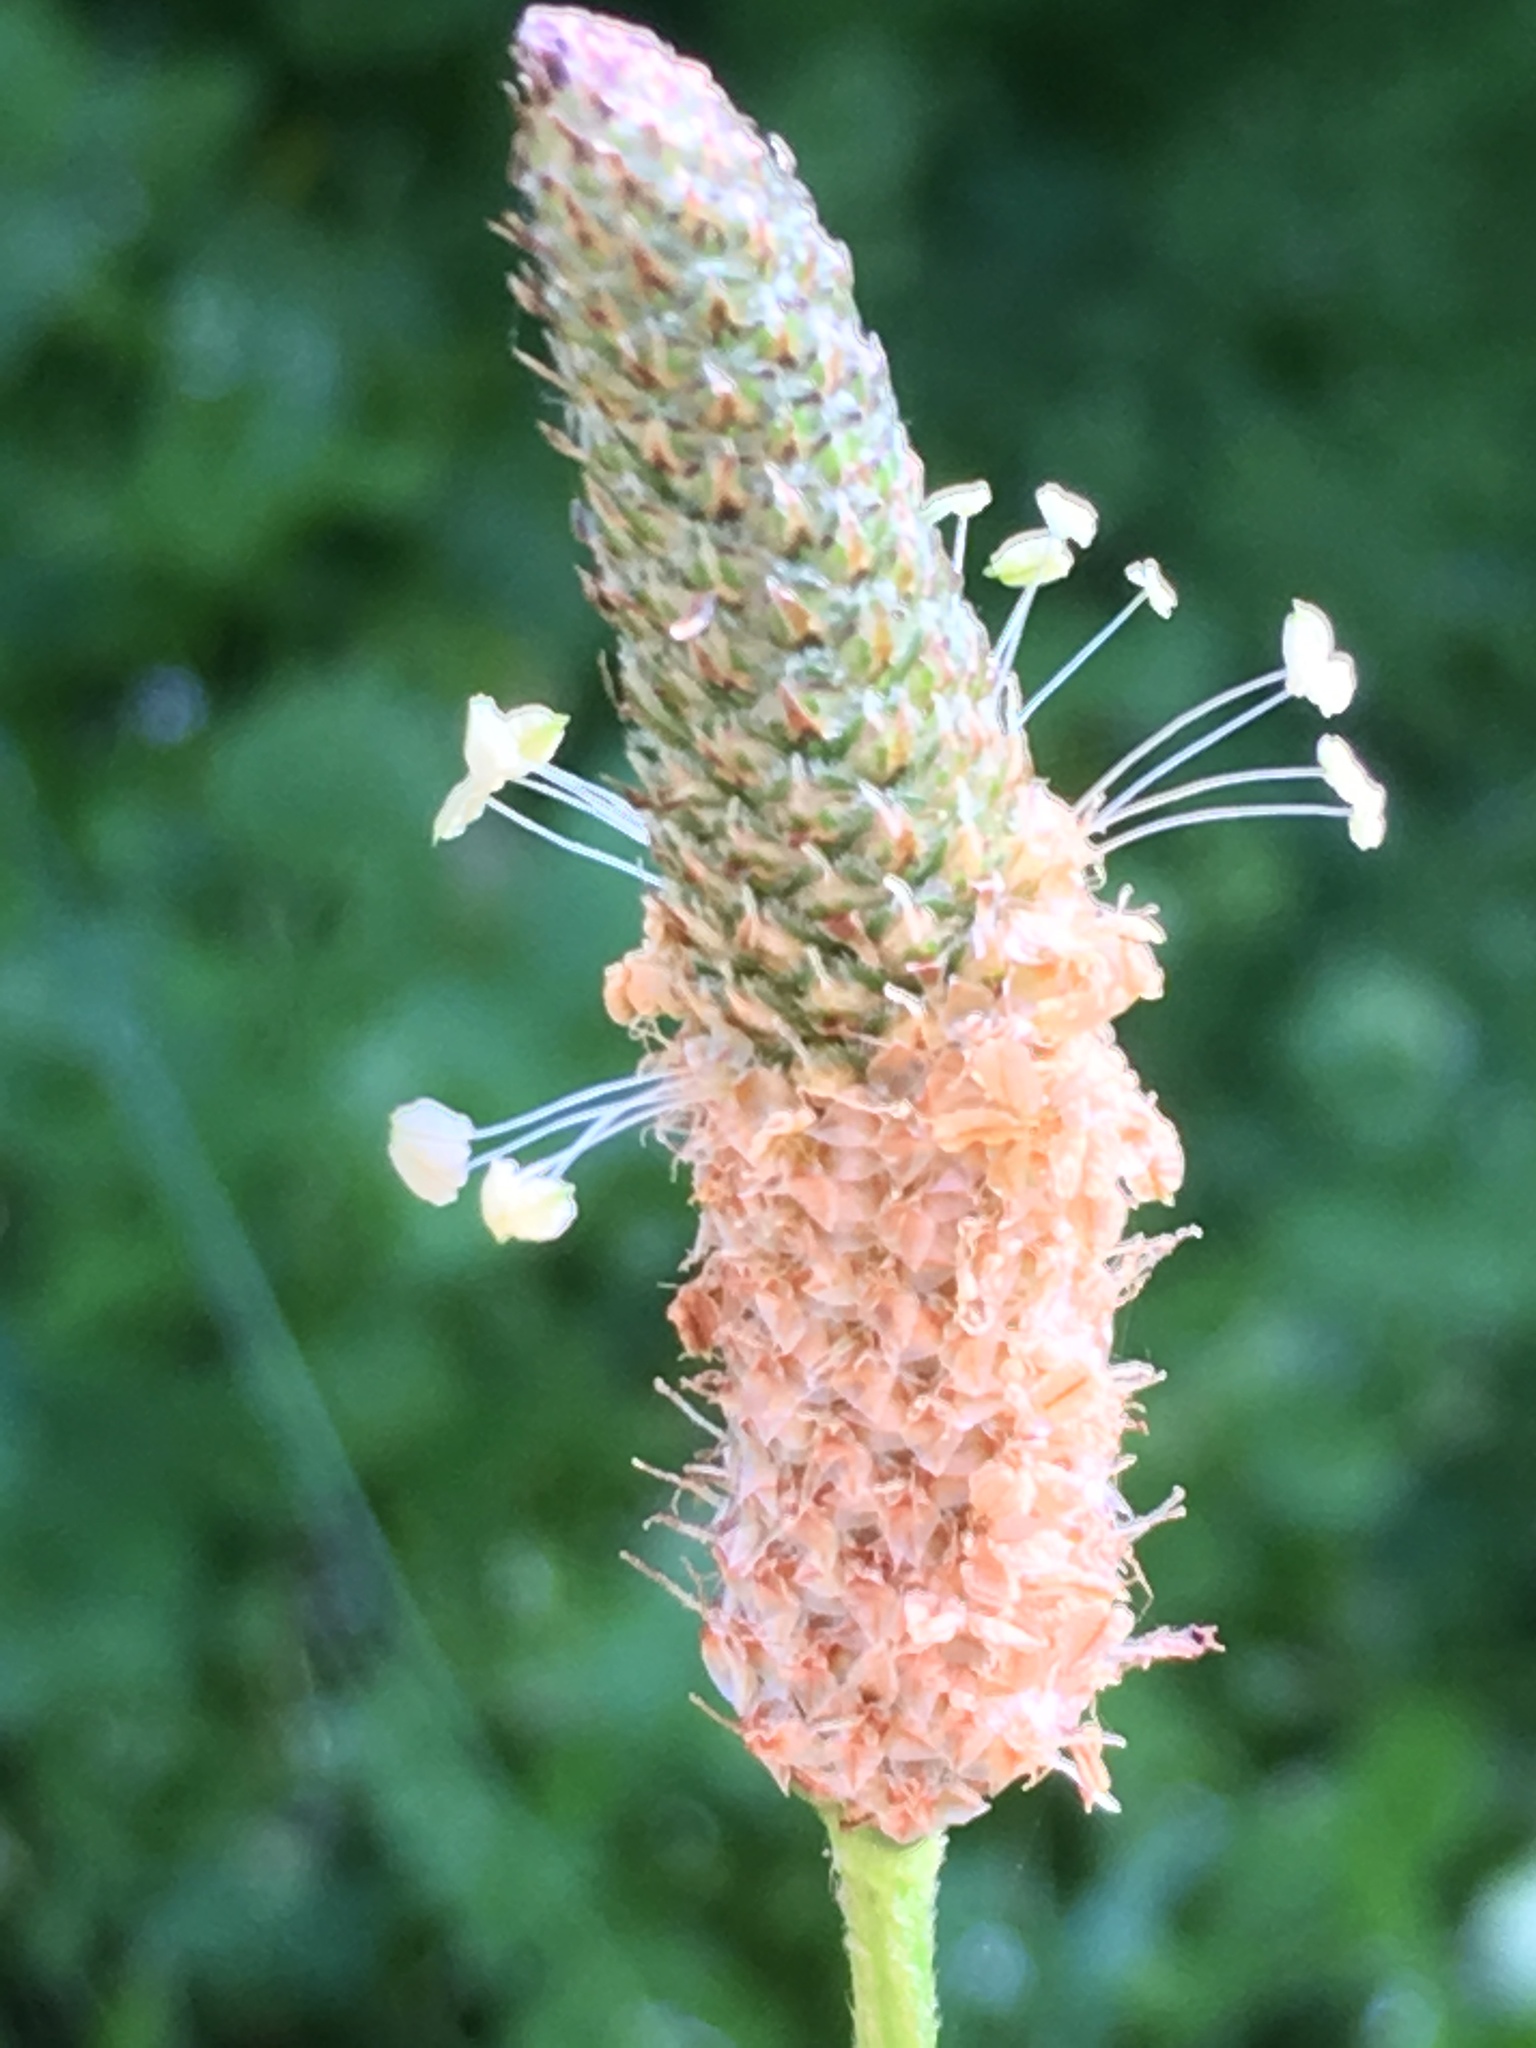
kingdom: Plantae
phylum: Tracheophyta
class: Magnoliopsida
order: Lamiales
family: Plantaginaceae
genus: Plantago
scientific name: Plantago lanceolata
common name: Ribwort plantain
